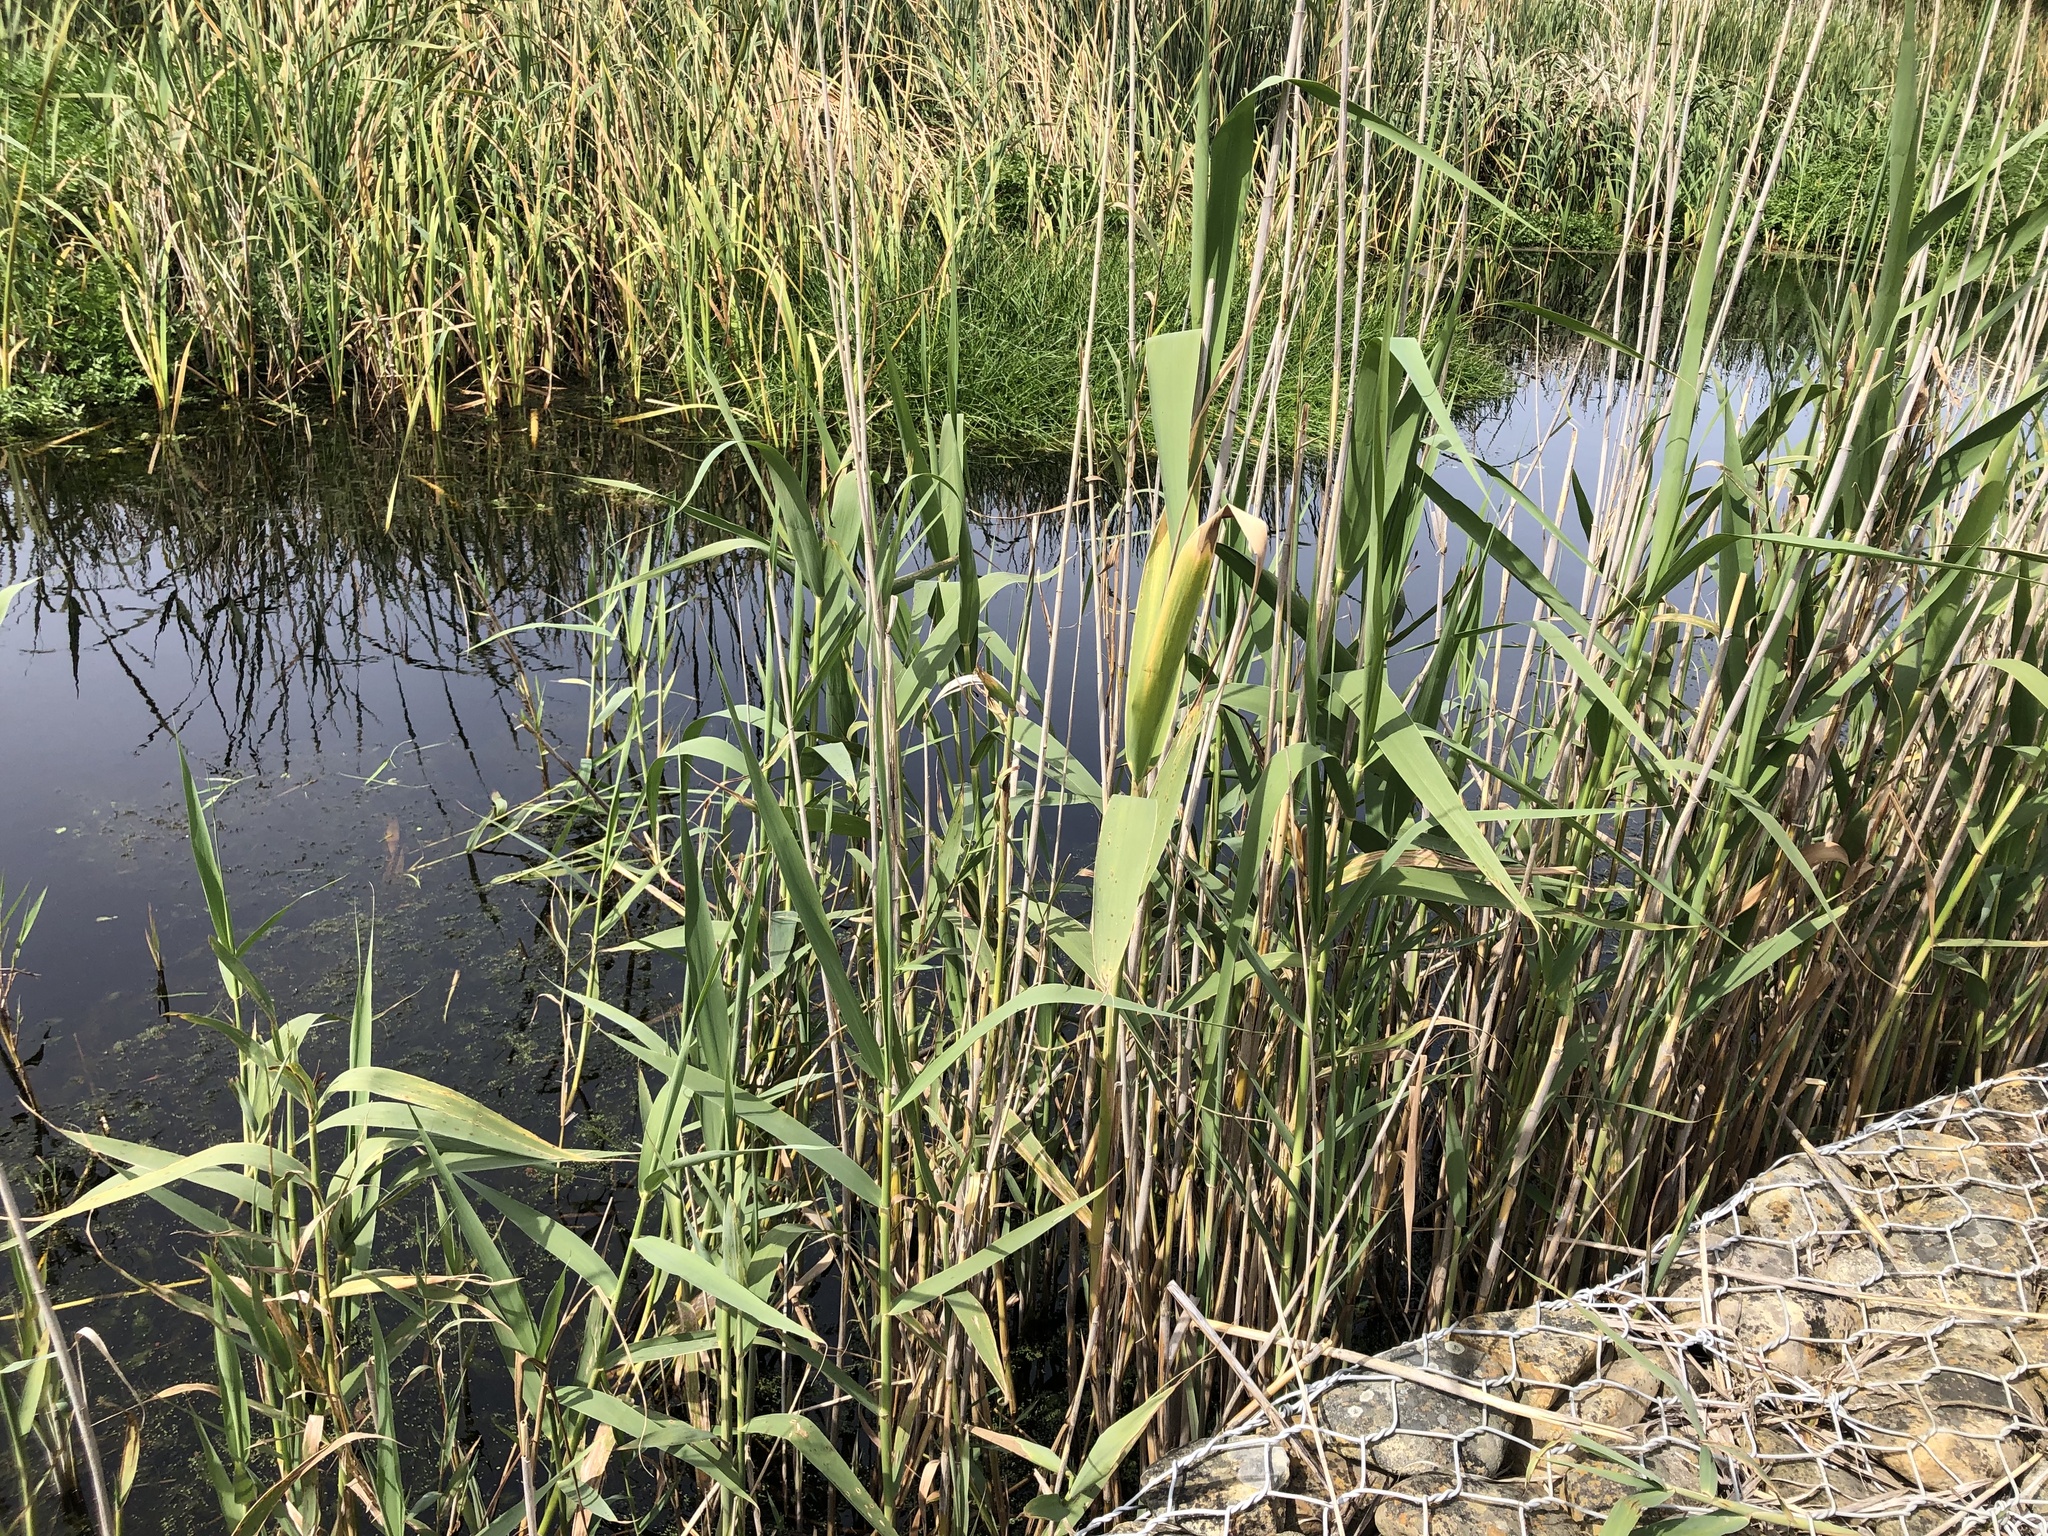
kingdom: Plantae
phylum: Tracheophyta
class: Liliopsida
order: Poales
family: Poaceae
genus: Phragmites
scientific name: Phragmites australis
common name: Common reed
